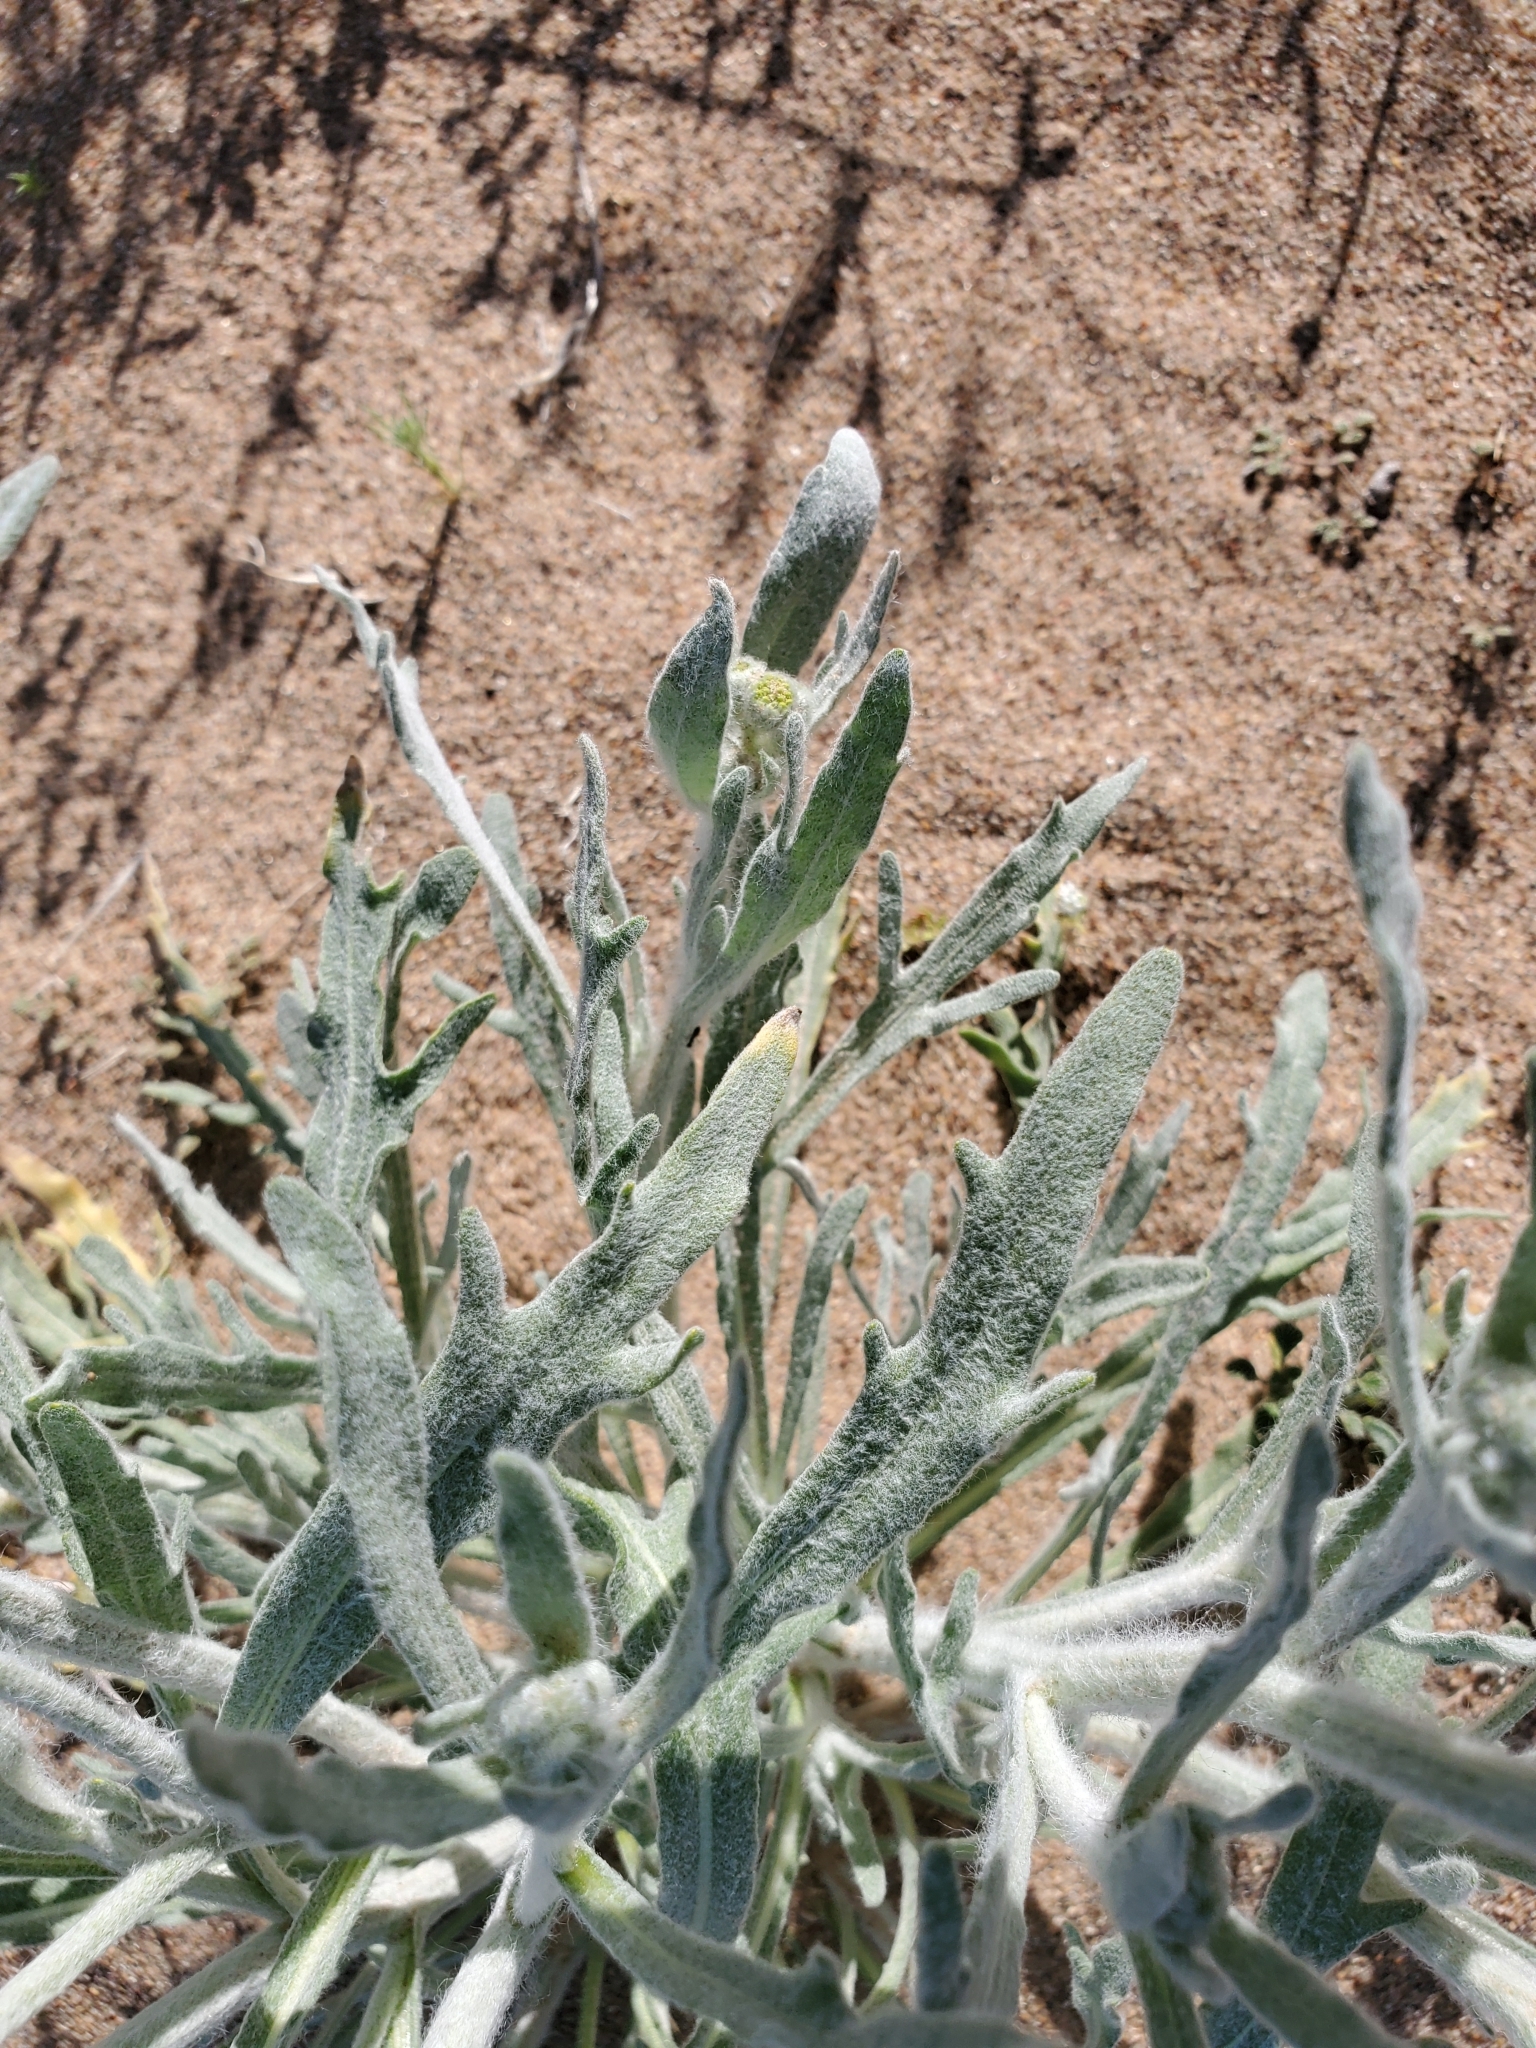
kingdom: Plantae
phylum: Tracheophyta
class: Magnoliopsida
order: Asterales
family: Asteraceae
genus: Baileya
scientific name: Baileya pauciradiata
